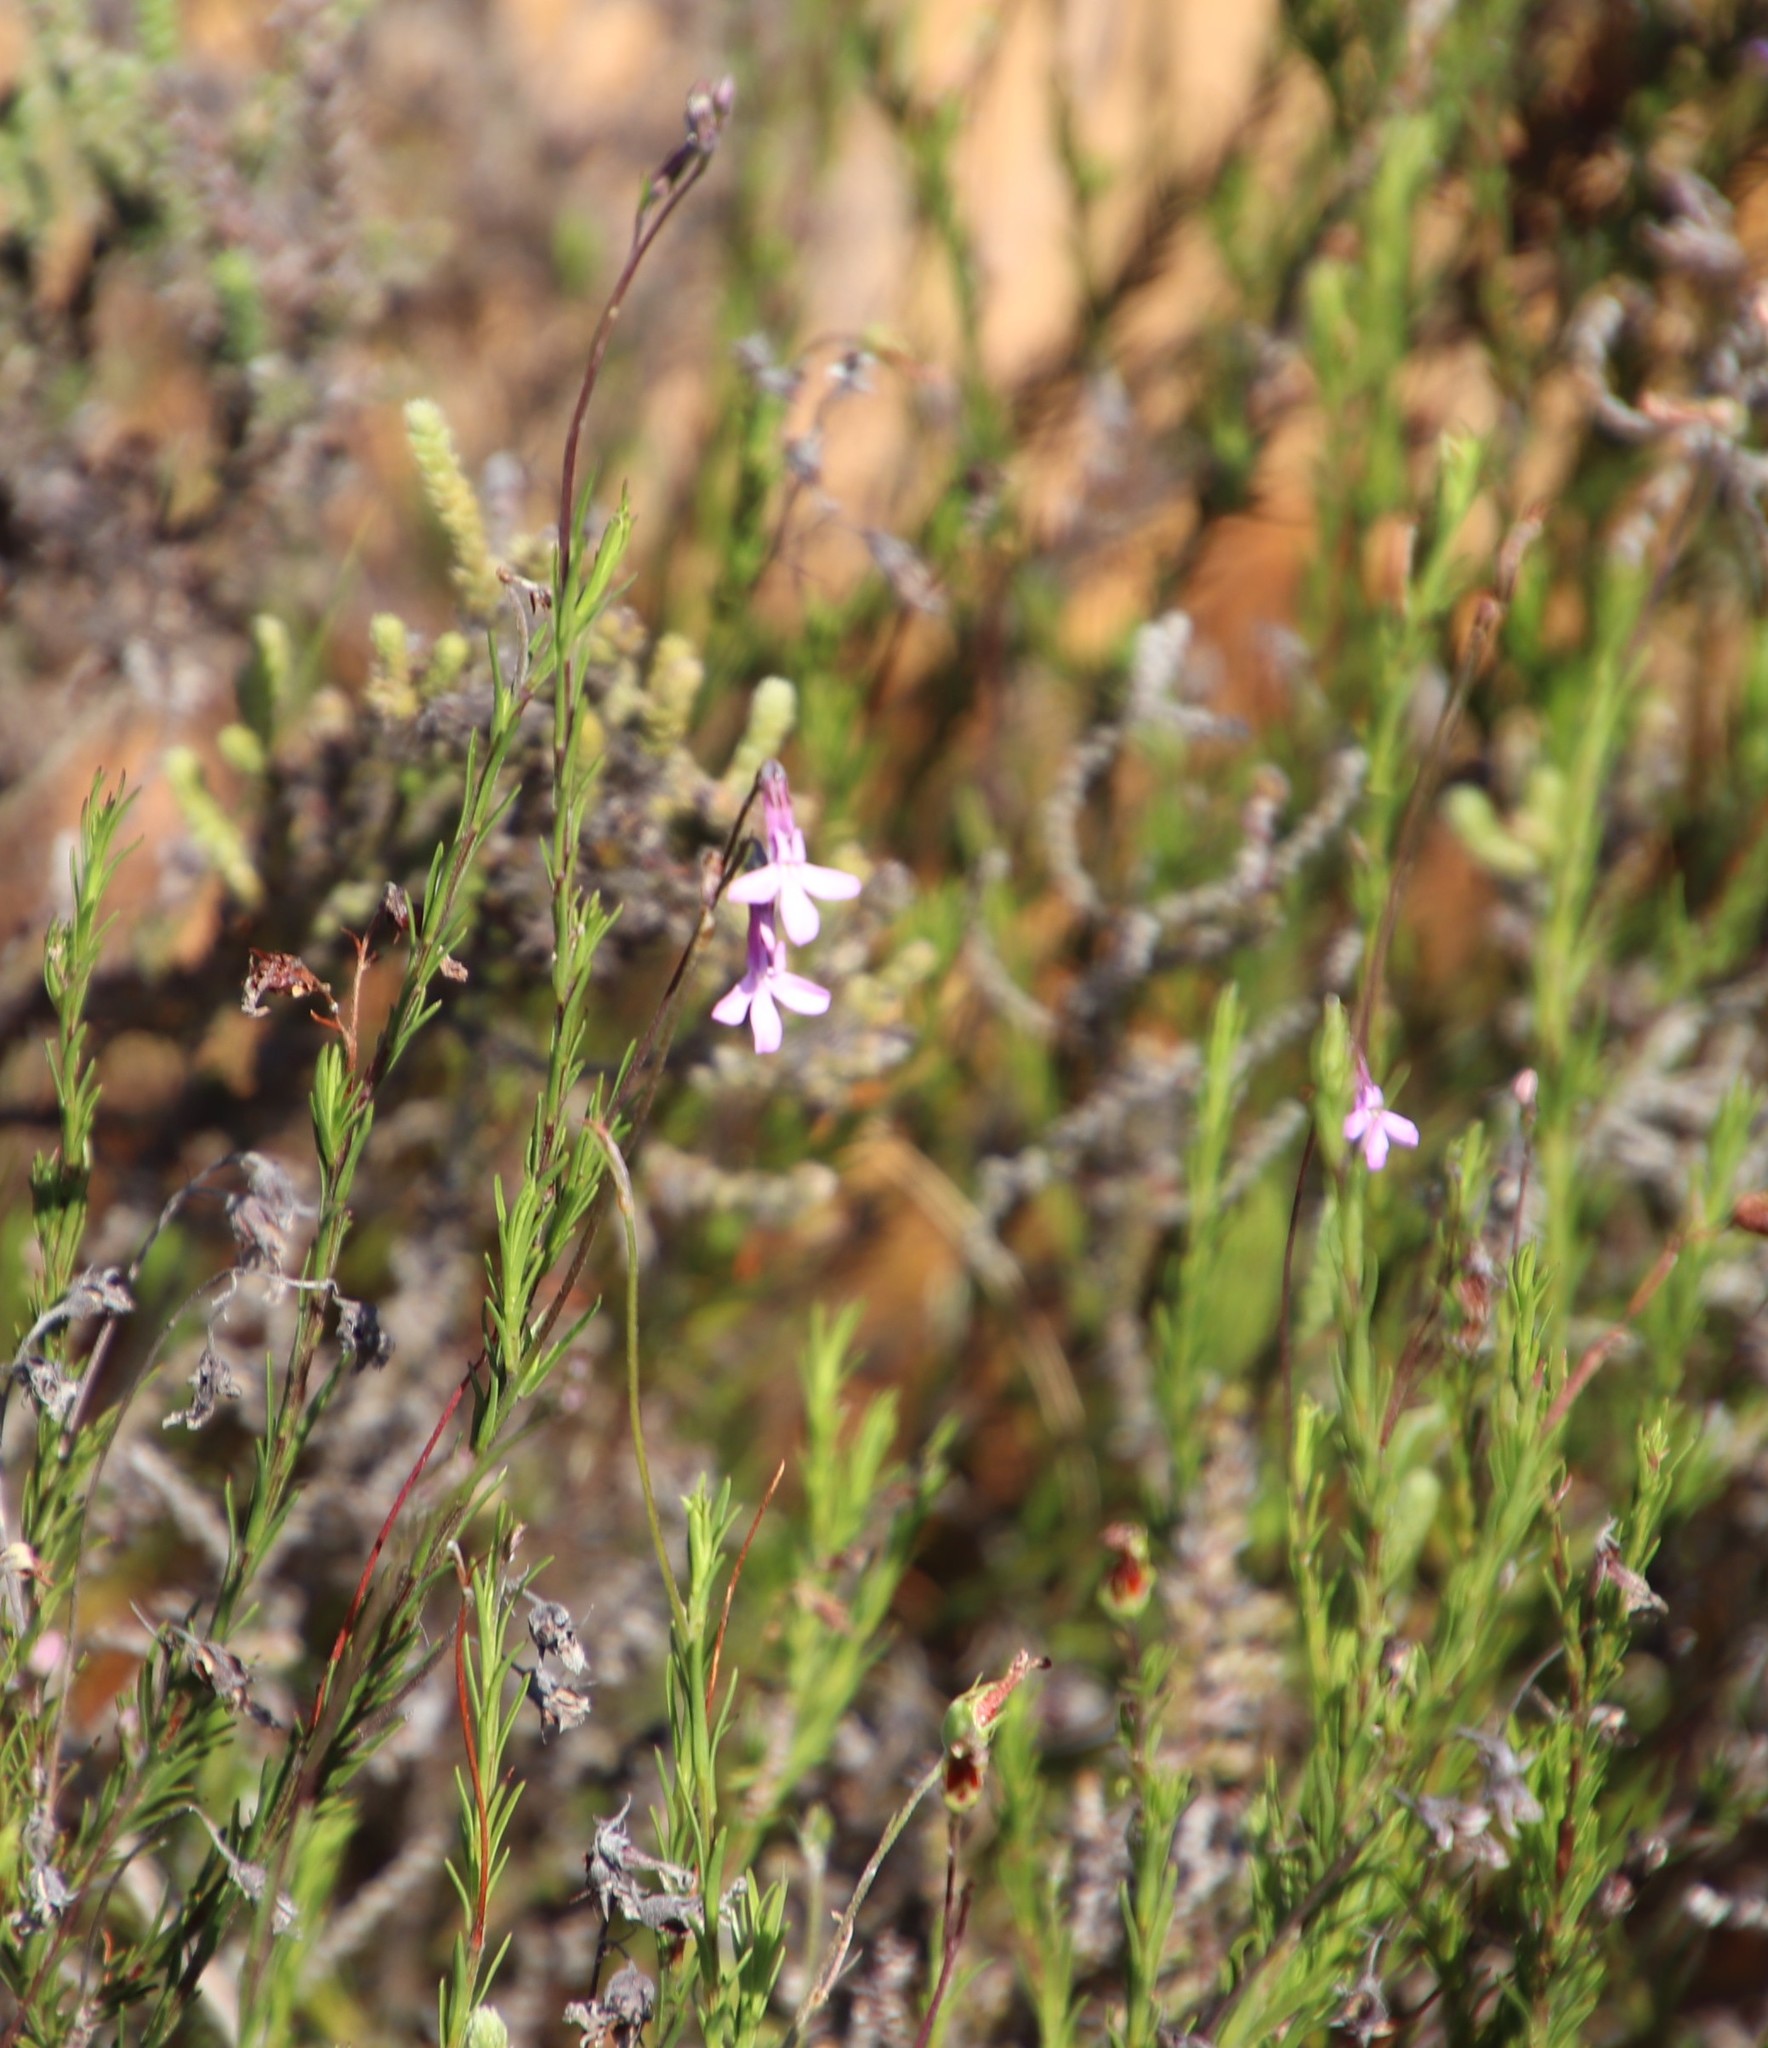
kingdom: Plantae
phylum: Tracheophyta
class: Magnoliopsida
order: Asterales
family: Campanulaceae
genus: Lobelia
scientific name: Lobelia pinifolia
